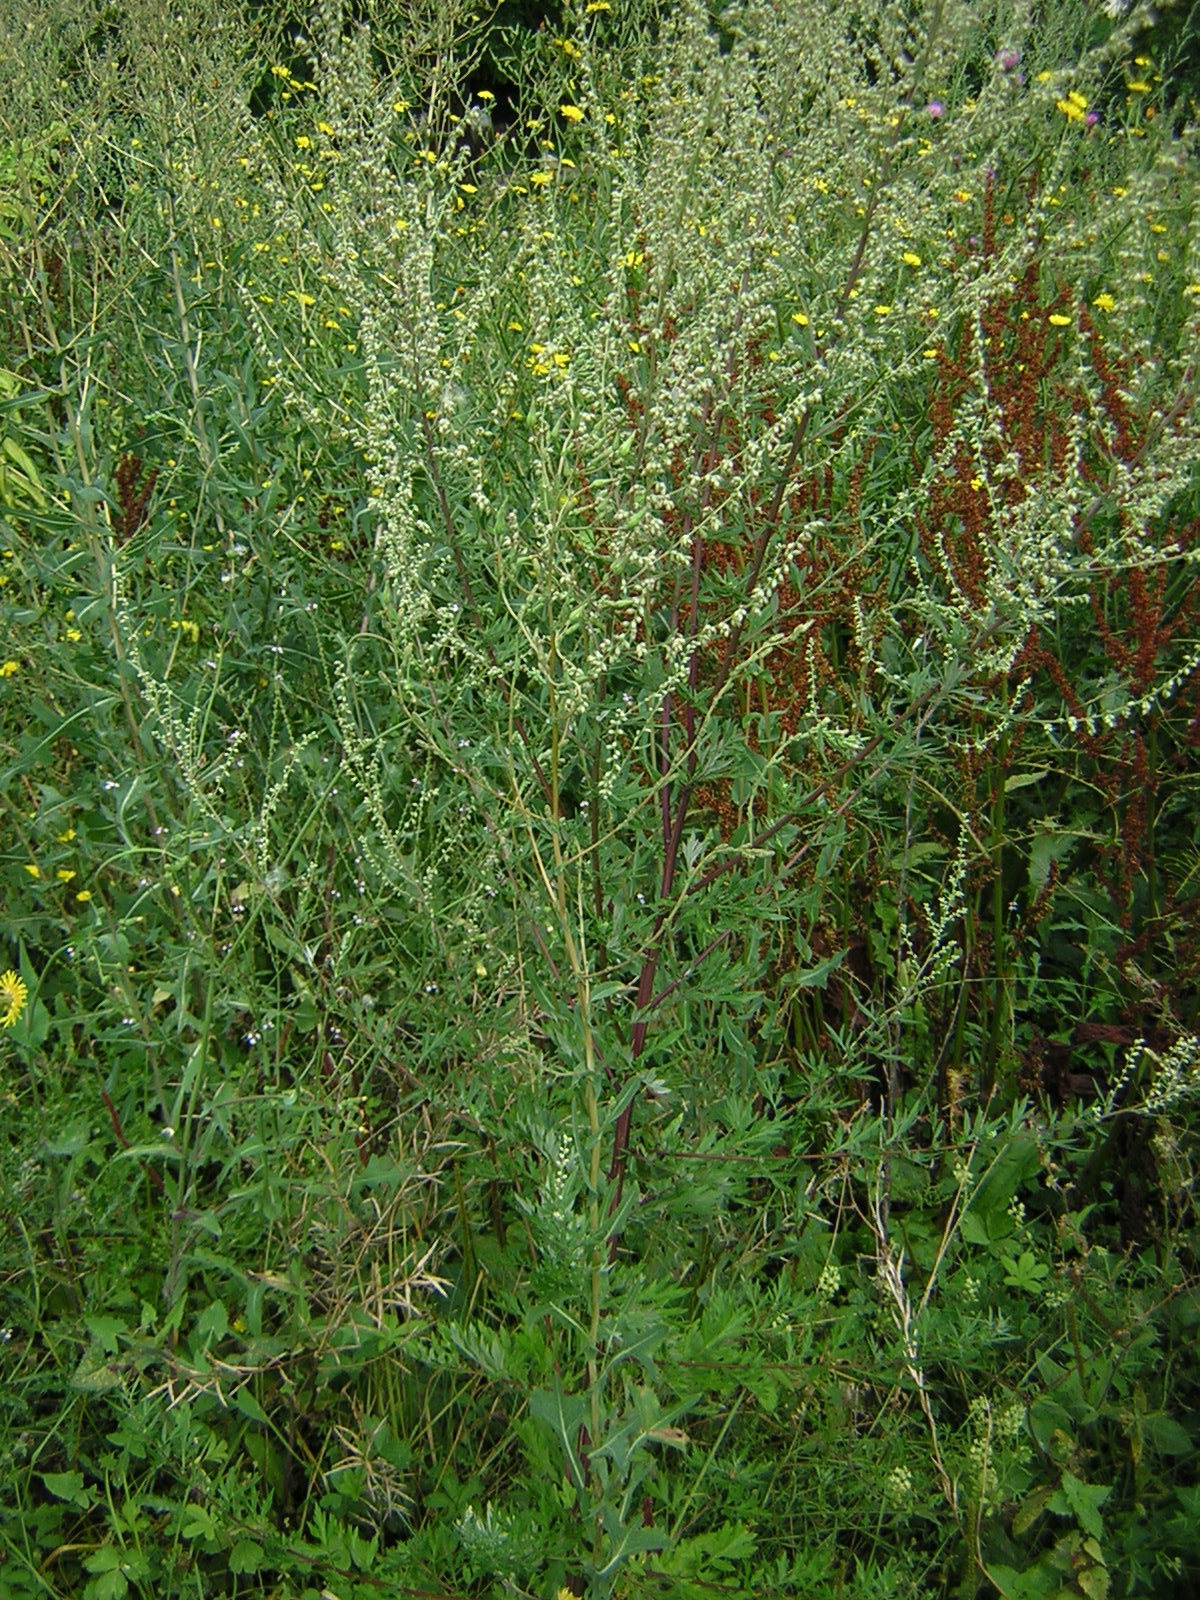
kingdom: Plantae
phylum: Tracheophyta
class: Magnoliopsida
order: Asterales
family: Asteraceae
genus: Artemisia
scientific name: Artemisia vulgaris
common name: Mugwort
